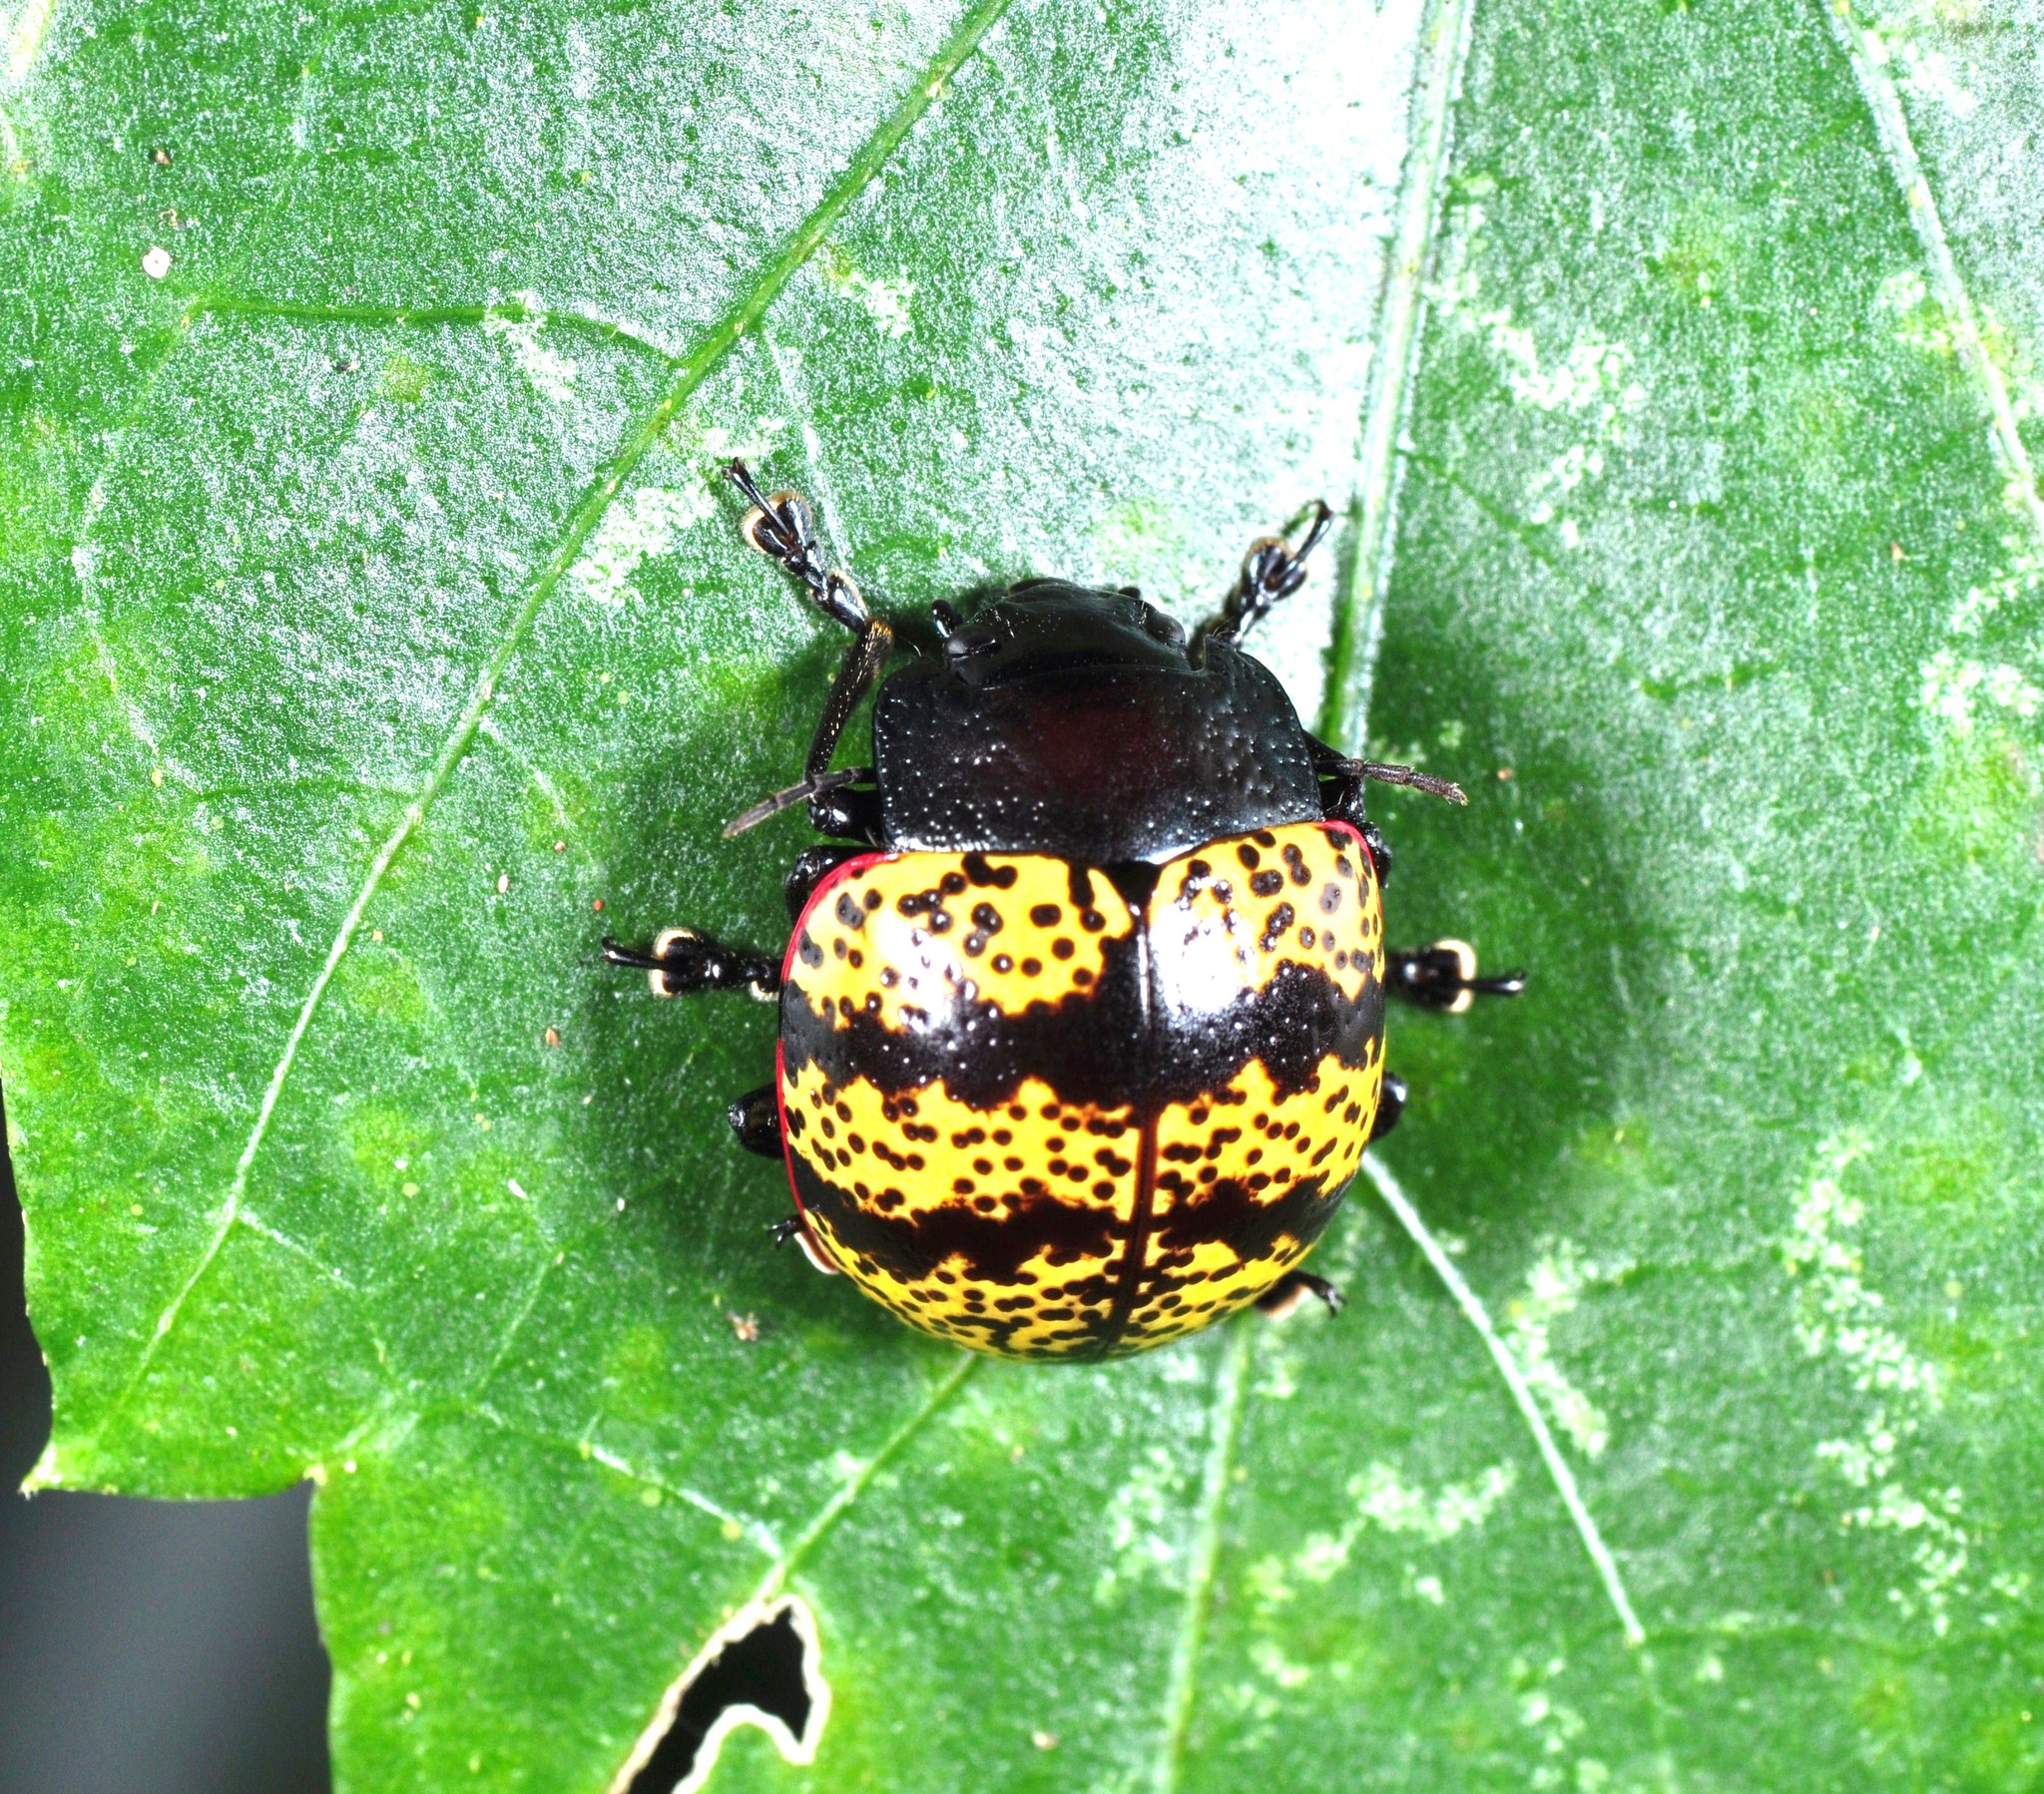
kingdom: Animalia
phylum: Arthropoda
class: Insecta
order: Coleoptera
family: Chrysomelidae
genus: Platyphora
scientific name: Platyphora petulans
